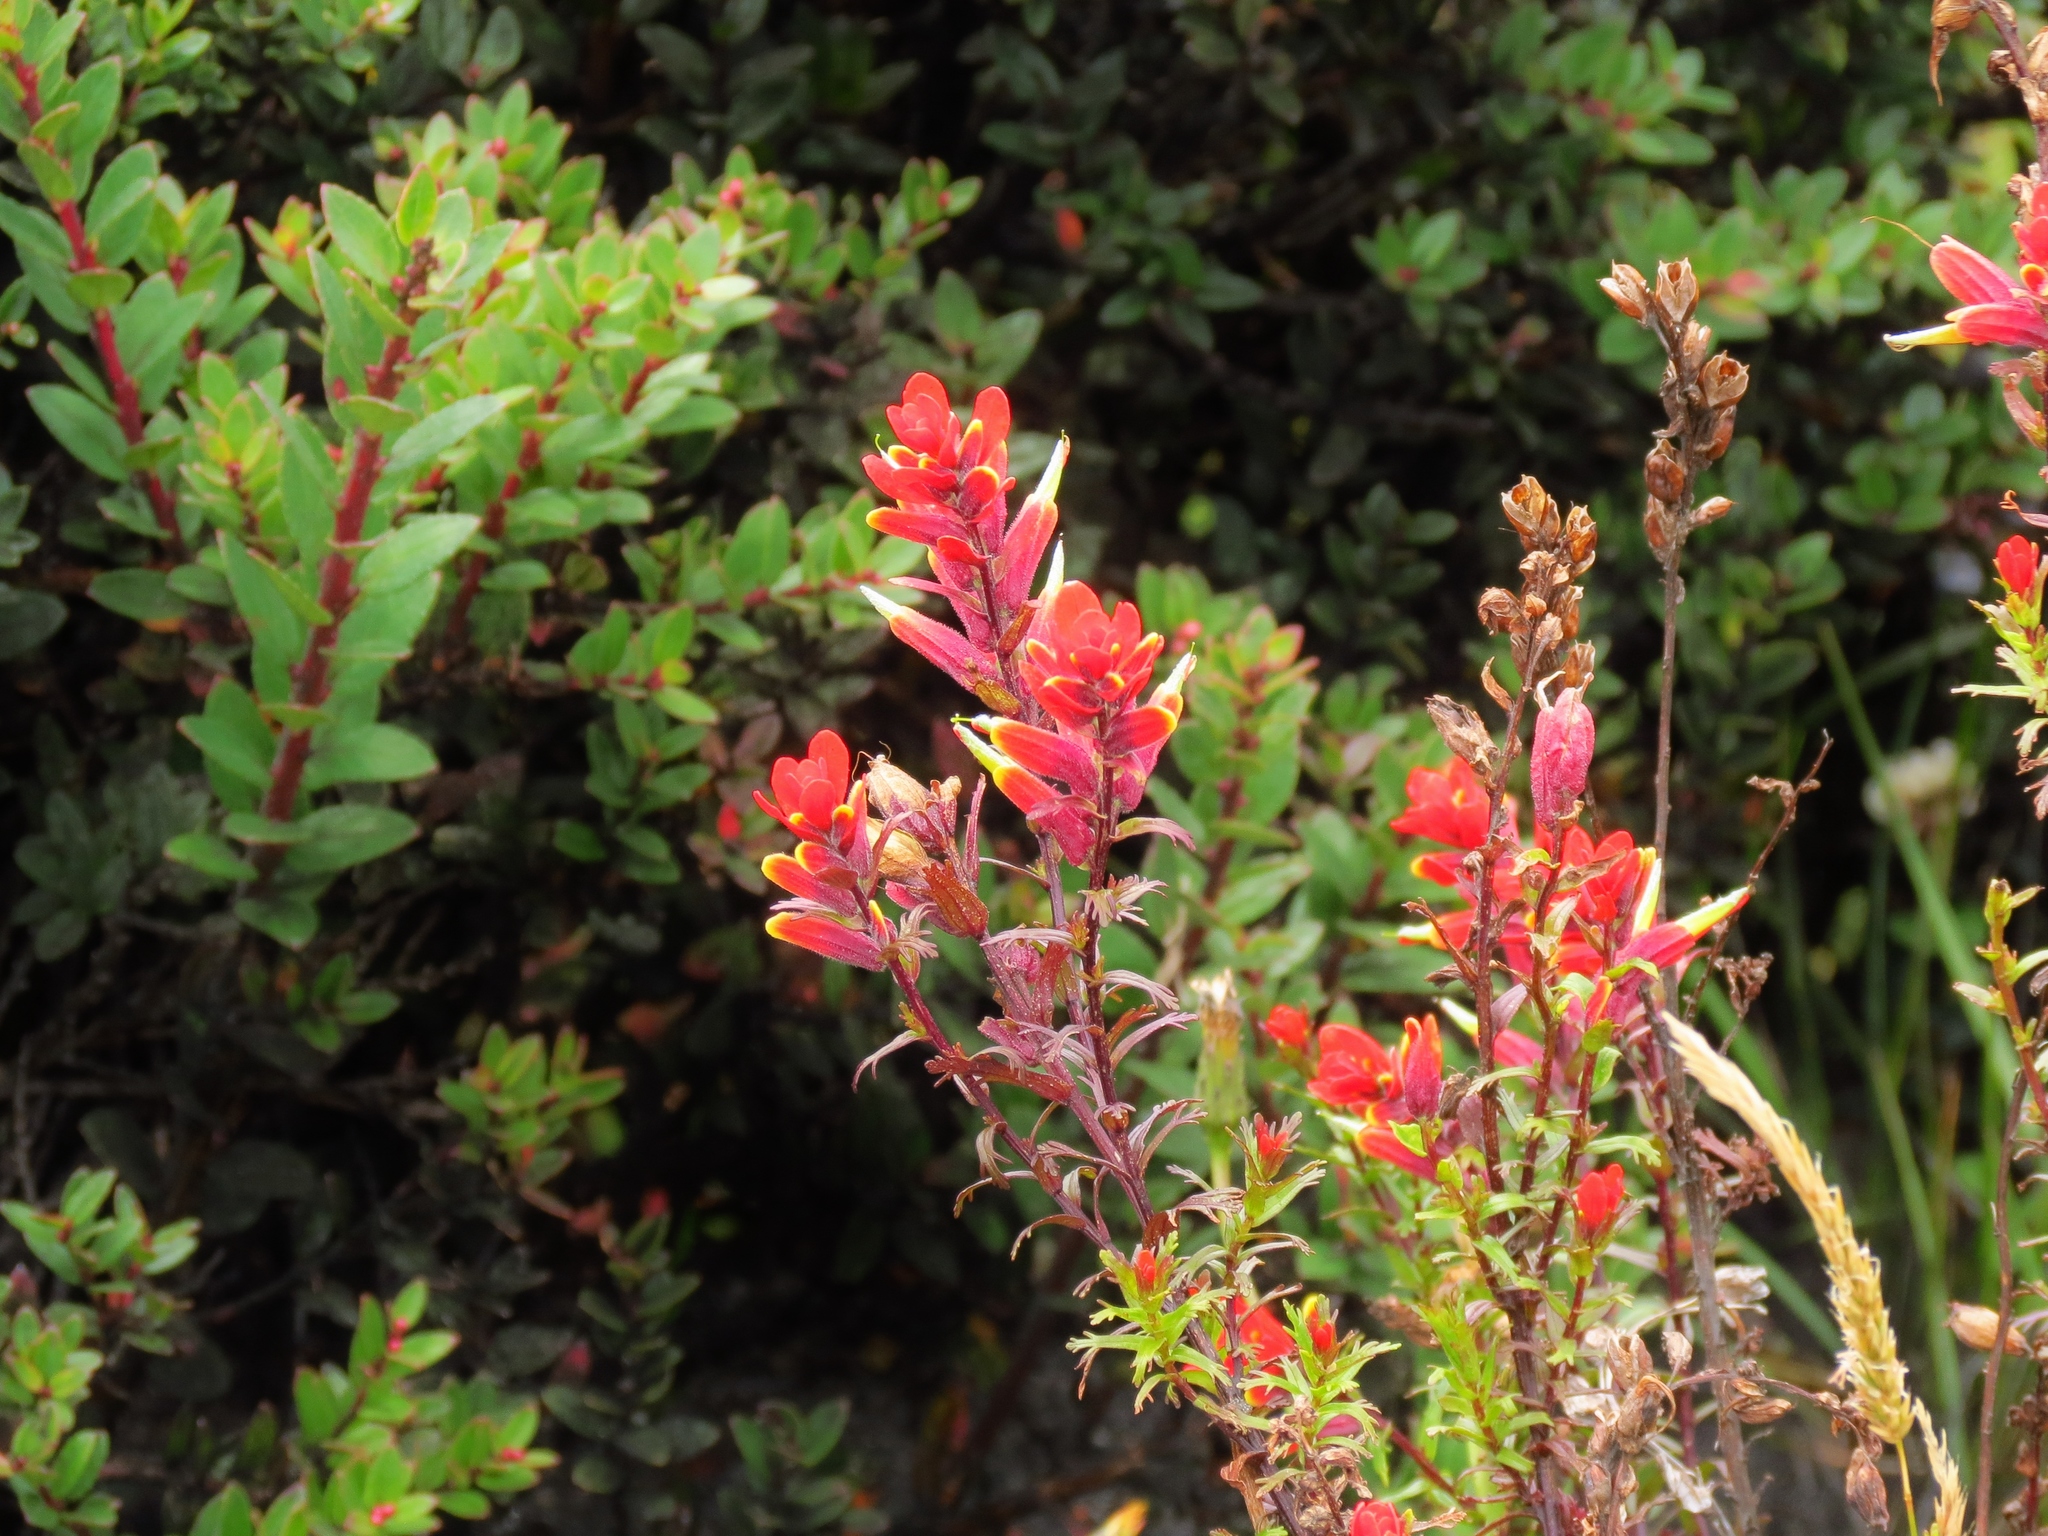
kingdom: Plantae
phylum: Tracheophyta
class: Magnoliopsida
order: Lamiales
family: Orobanchaceae
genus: Castilleja
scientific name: Castilleja irasuensis
